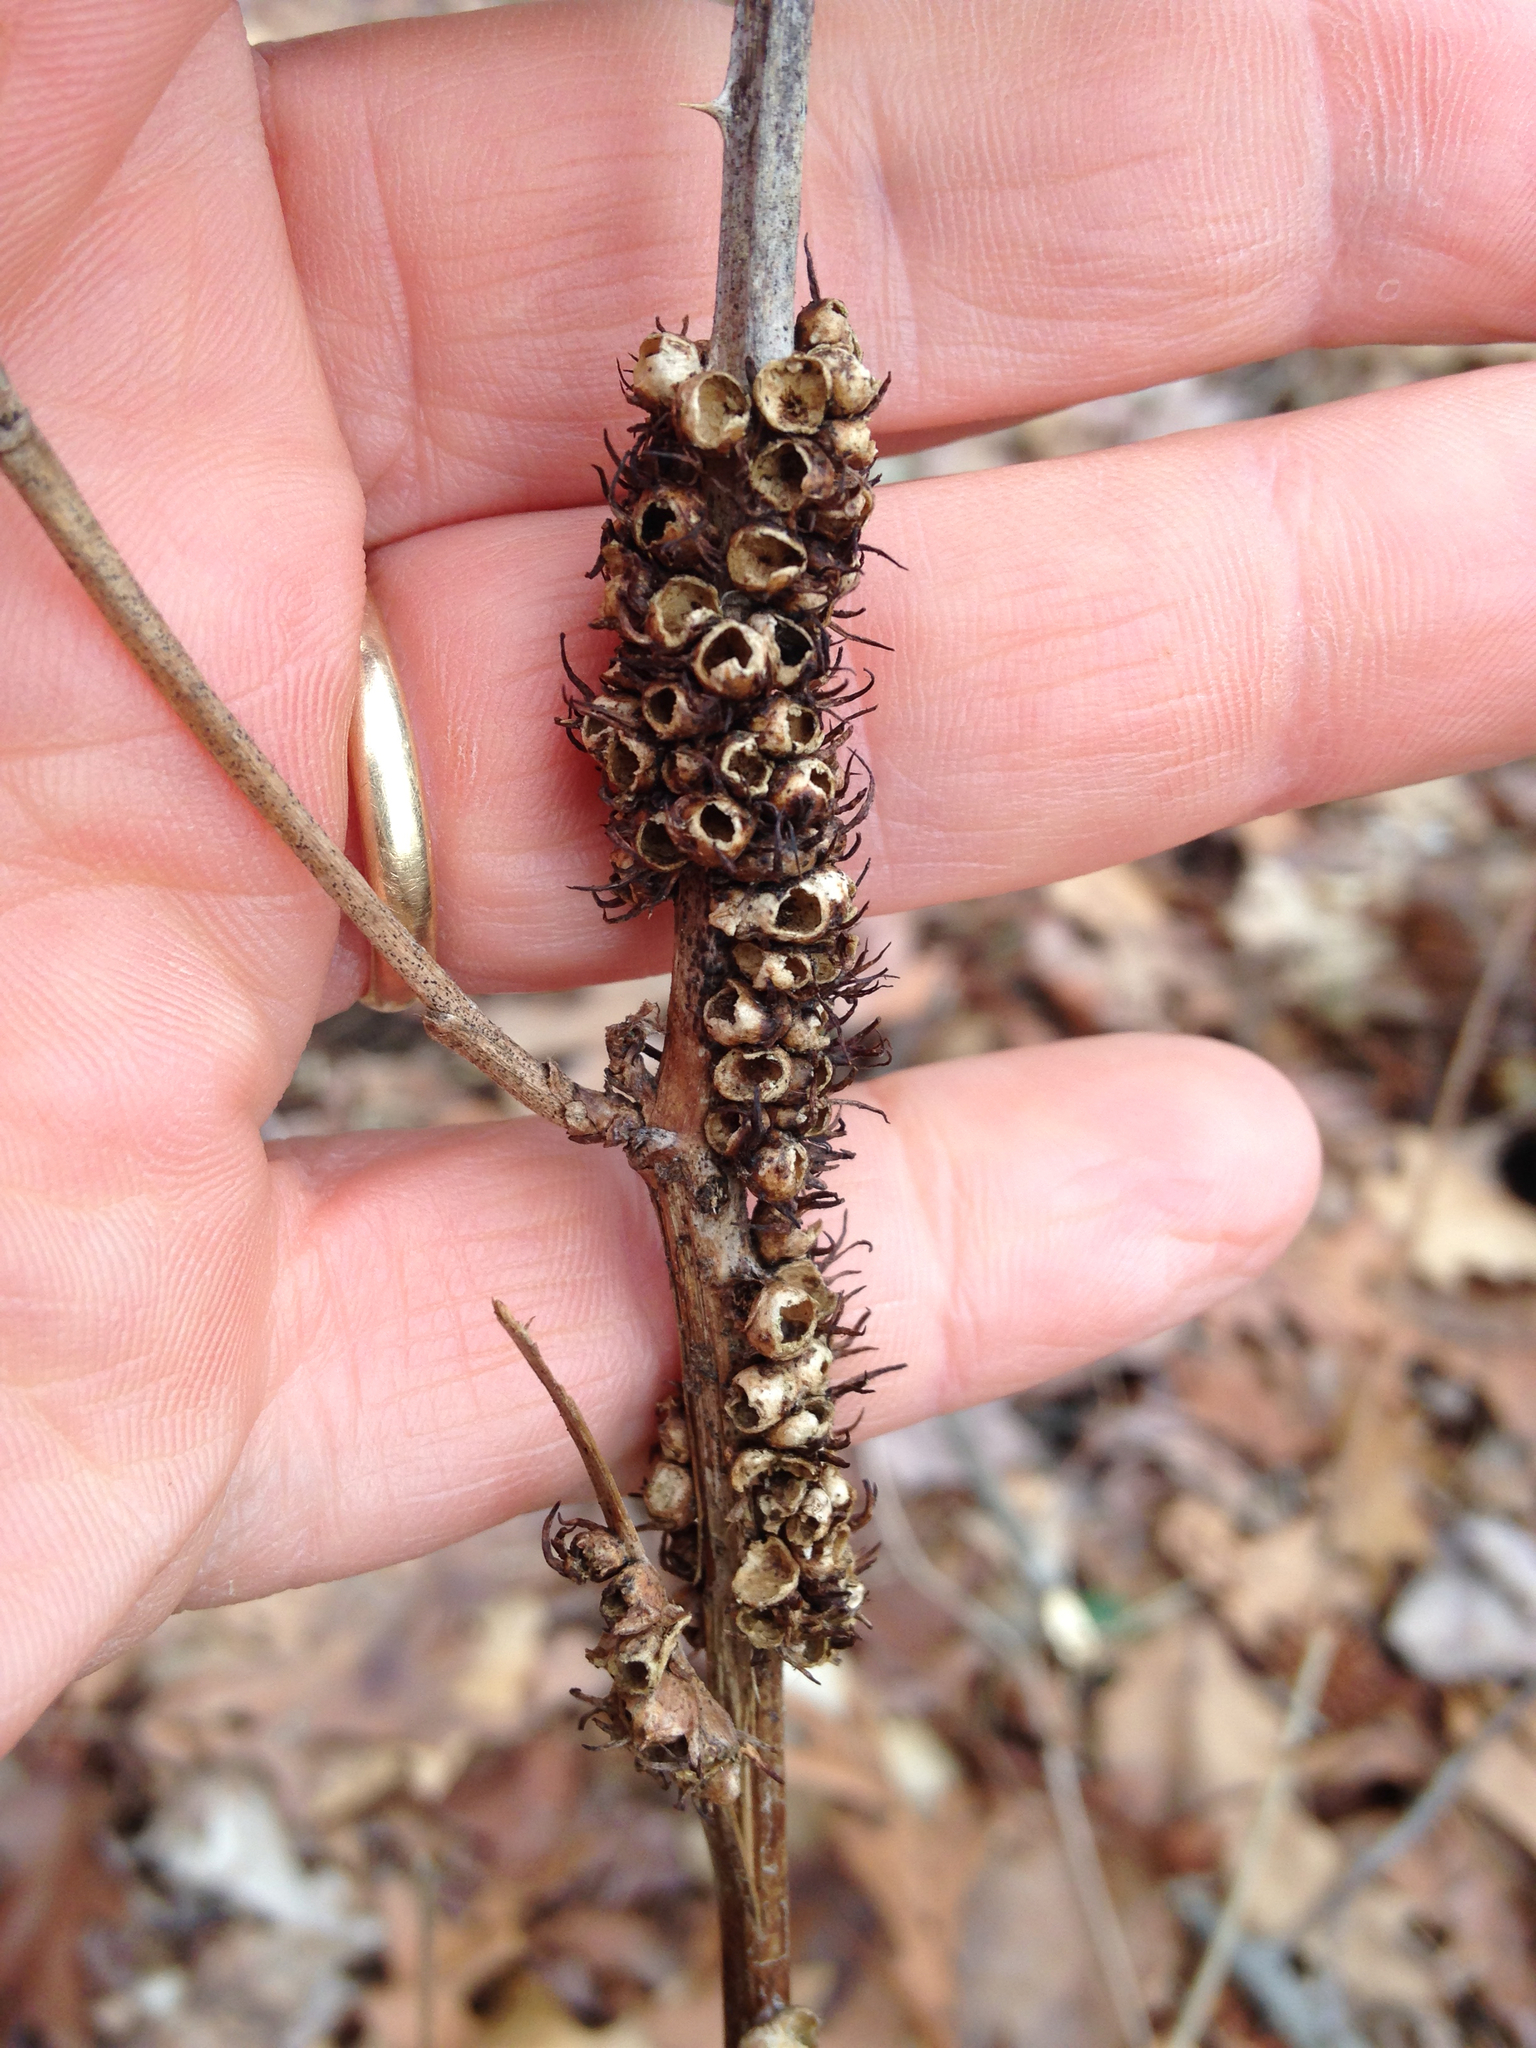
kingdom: Animalia
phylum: Arthropoda
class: Insecta
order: Hymenoptera
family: Cynipidae
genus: Diastrophus
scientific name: Diastrophus
